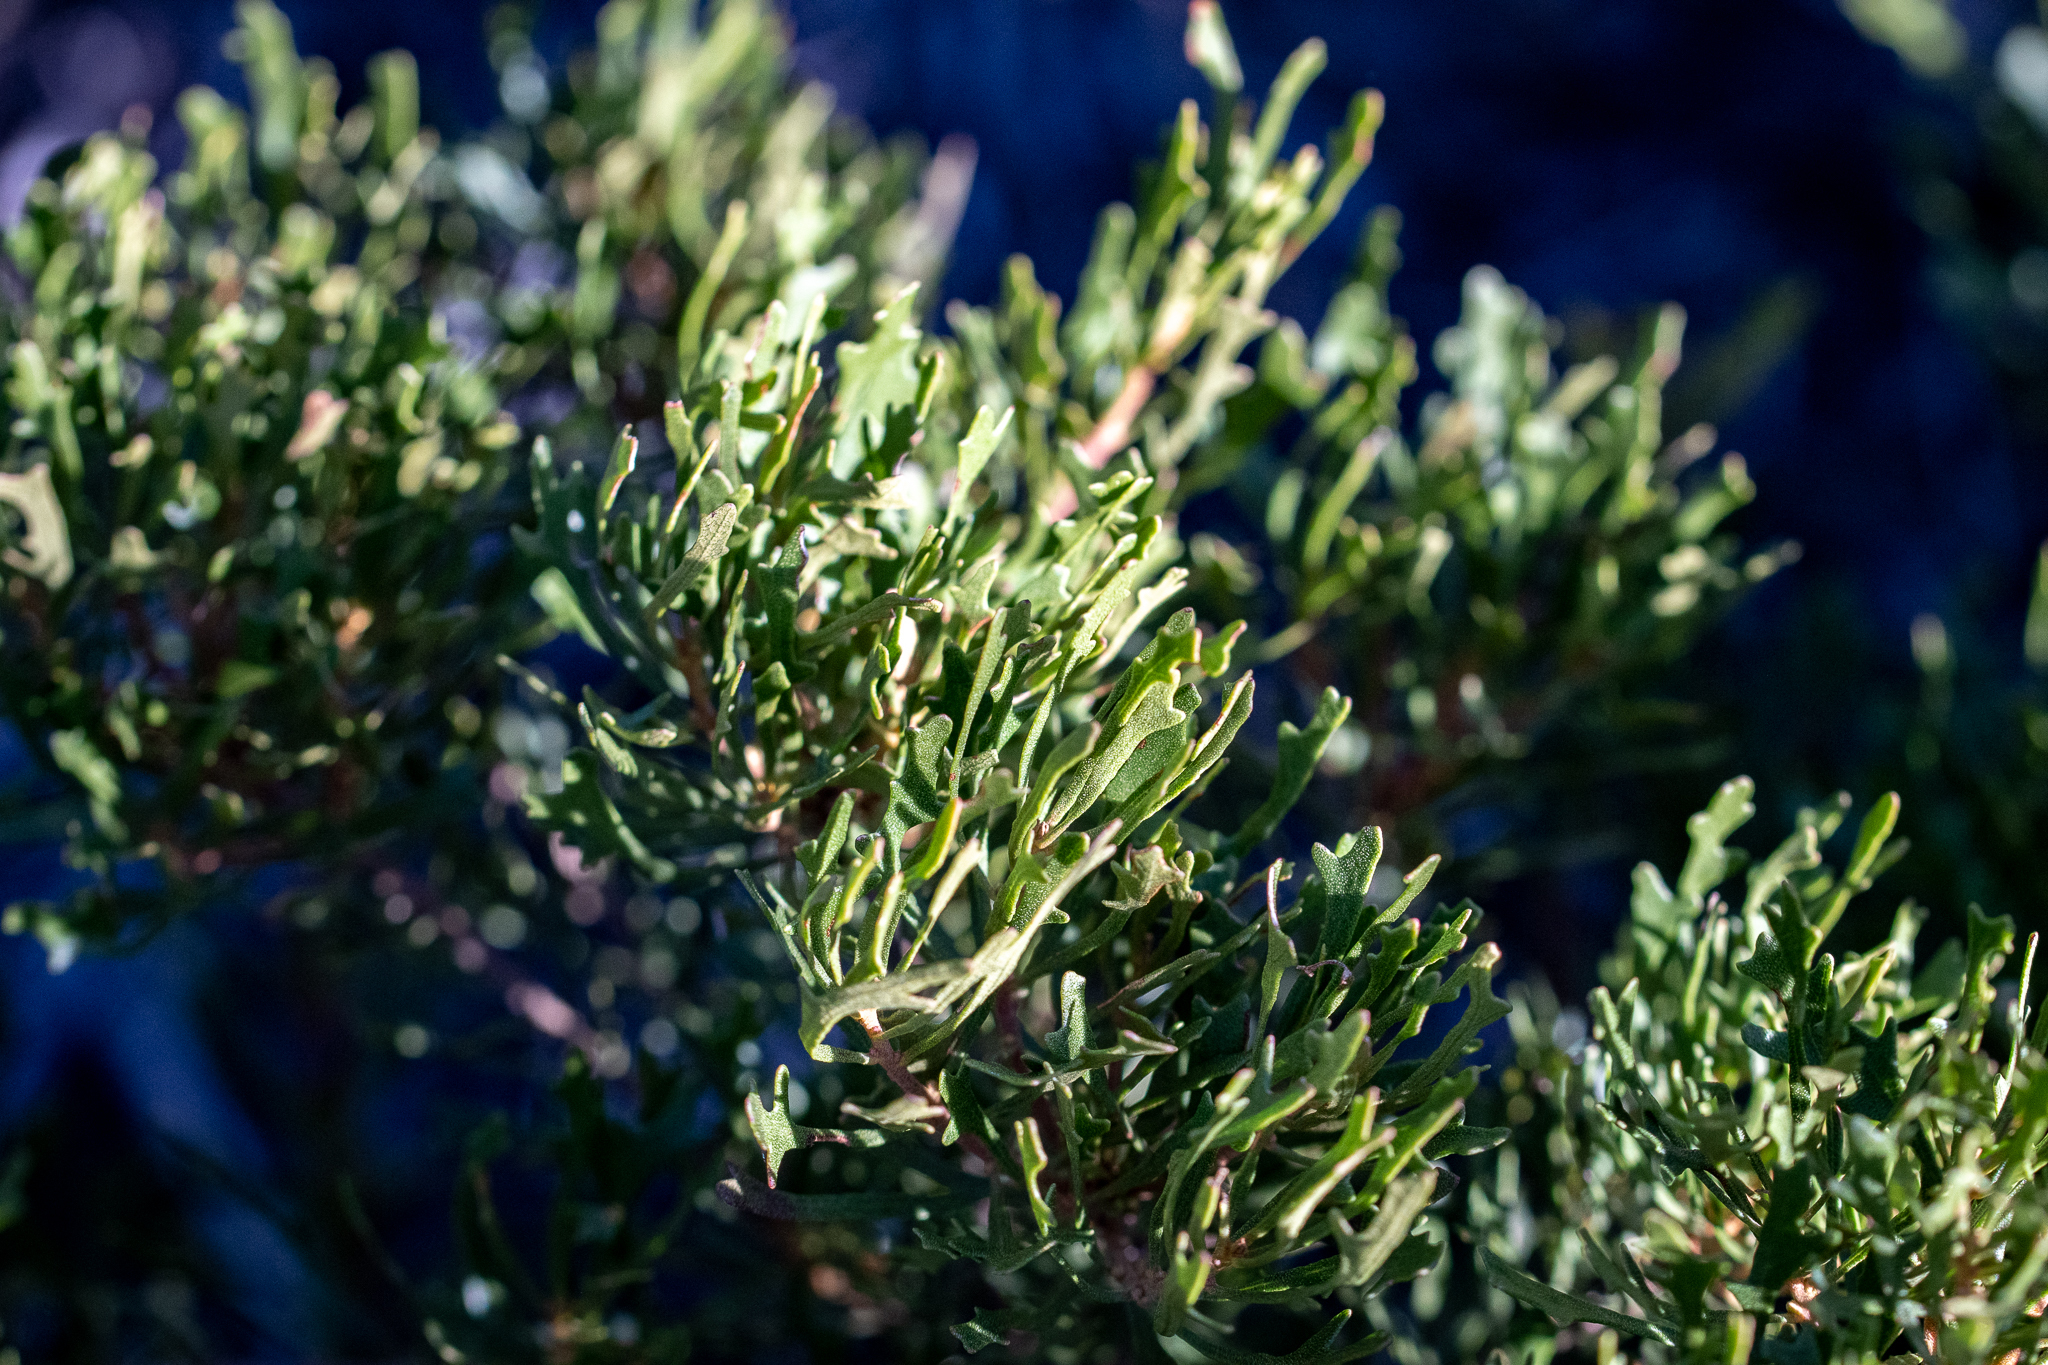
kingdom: Plantae
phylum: Tracheophyta
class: Magnoliopsida
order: Fagales
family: Myricaceae
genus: Morella
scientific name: Morella quercifolia
